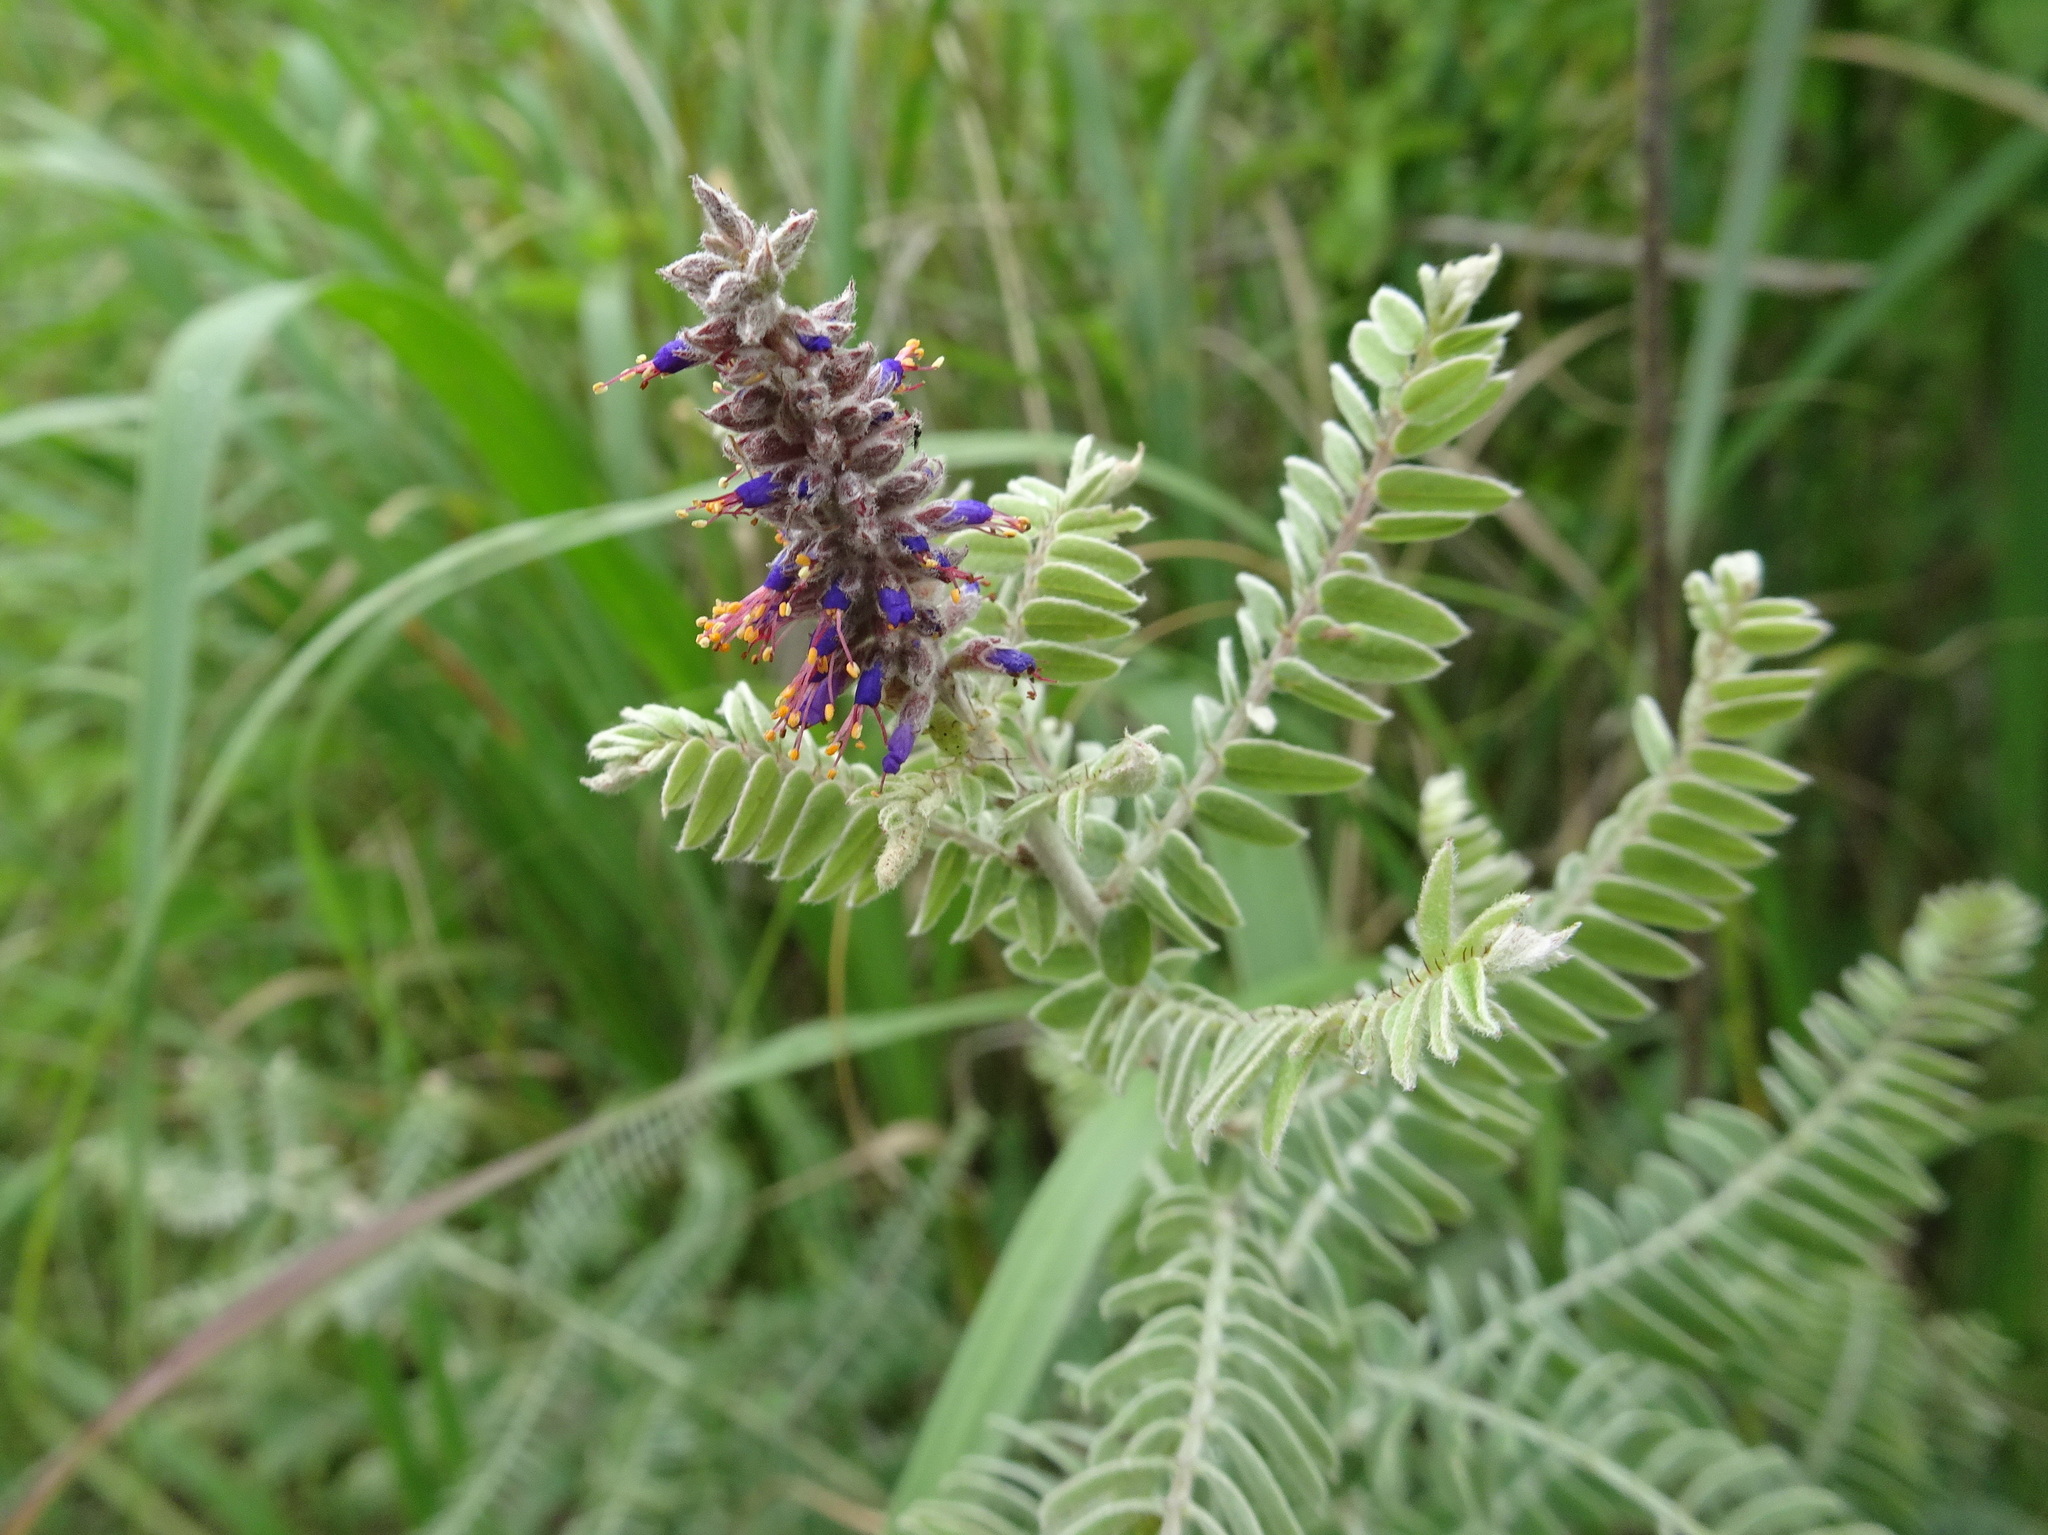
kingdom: Plantae
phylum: Tracheophyta
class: Magnoliopsida
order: Fabales
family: Fabaceae
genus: Amorpha
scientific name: Amorpha canescens
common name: Leadplant
